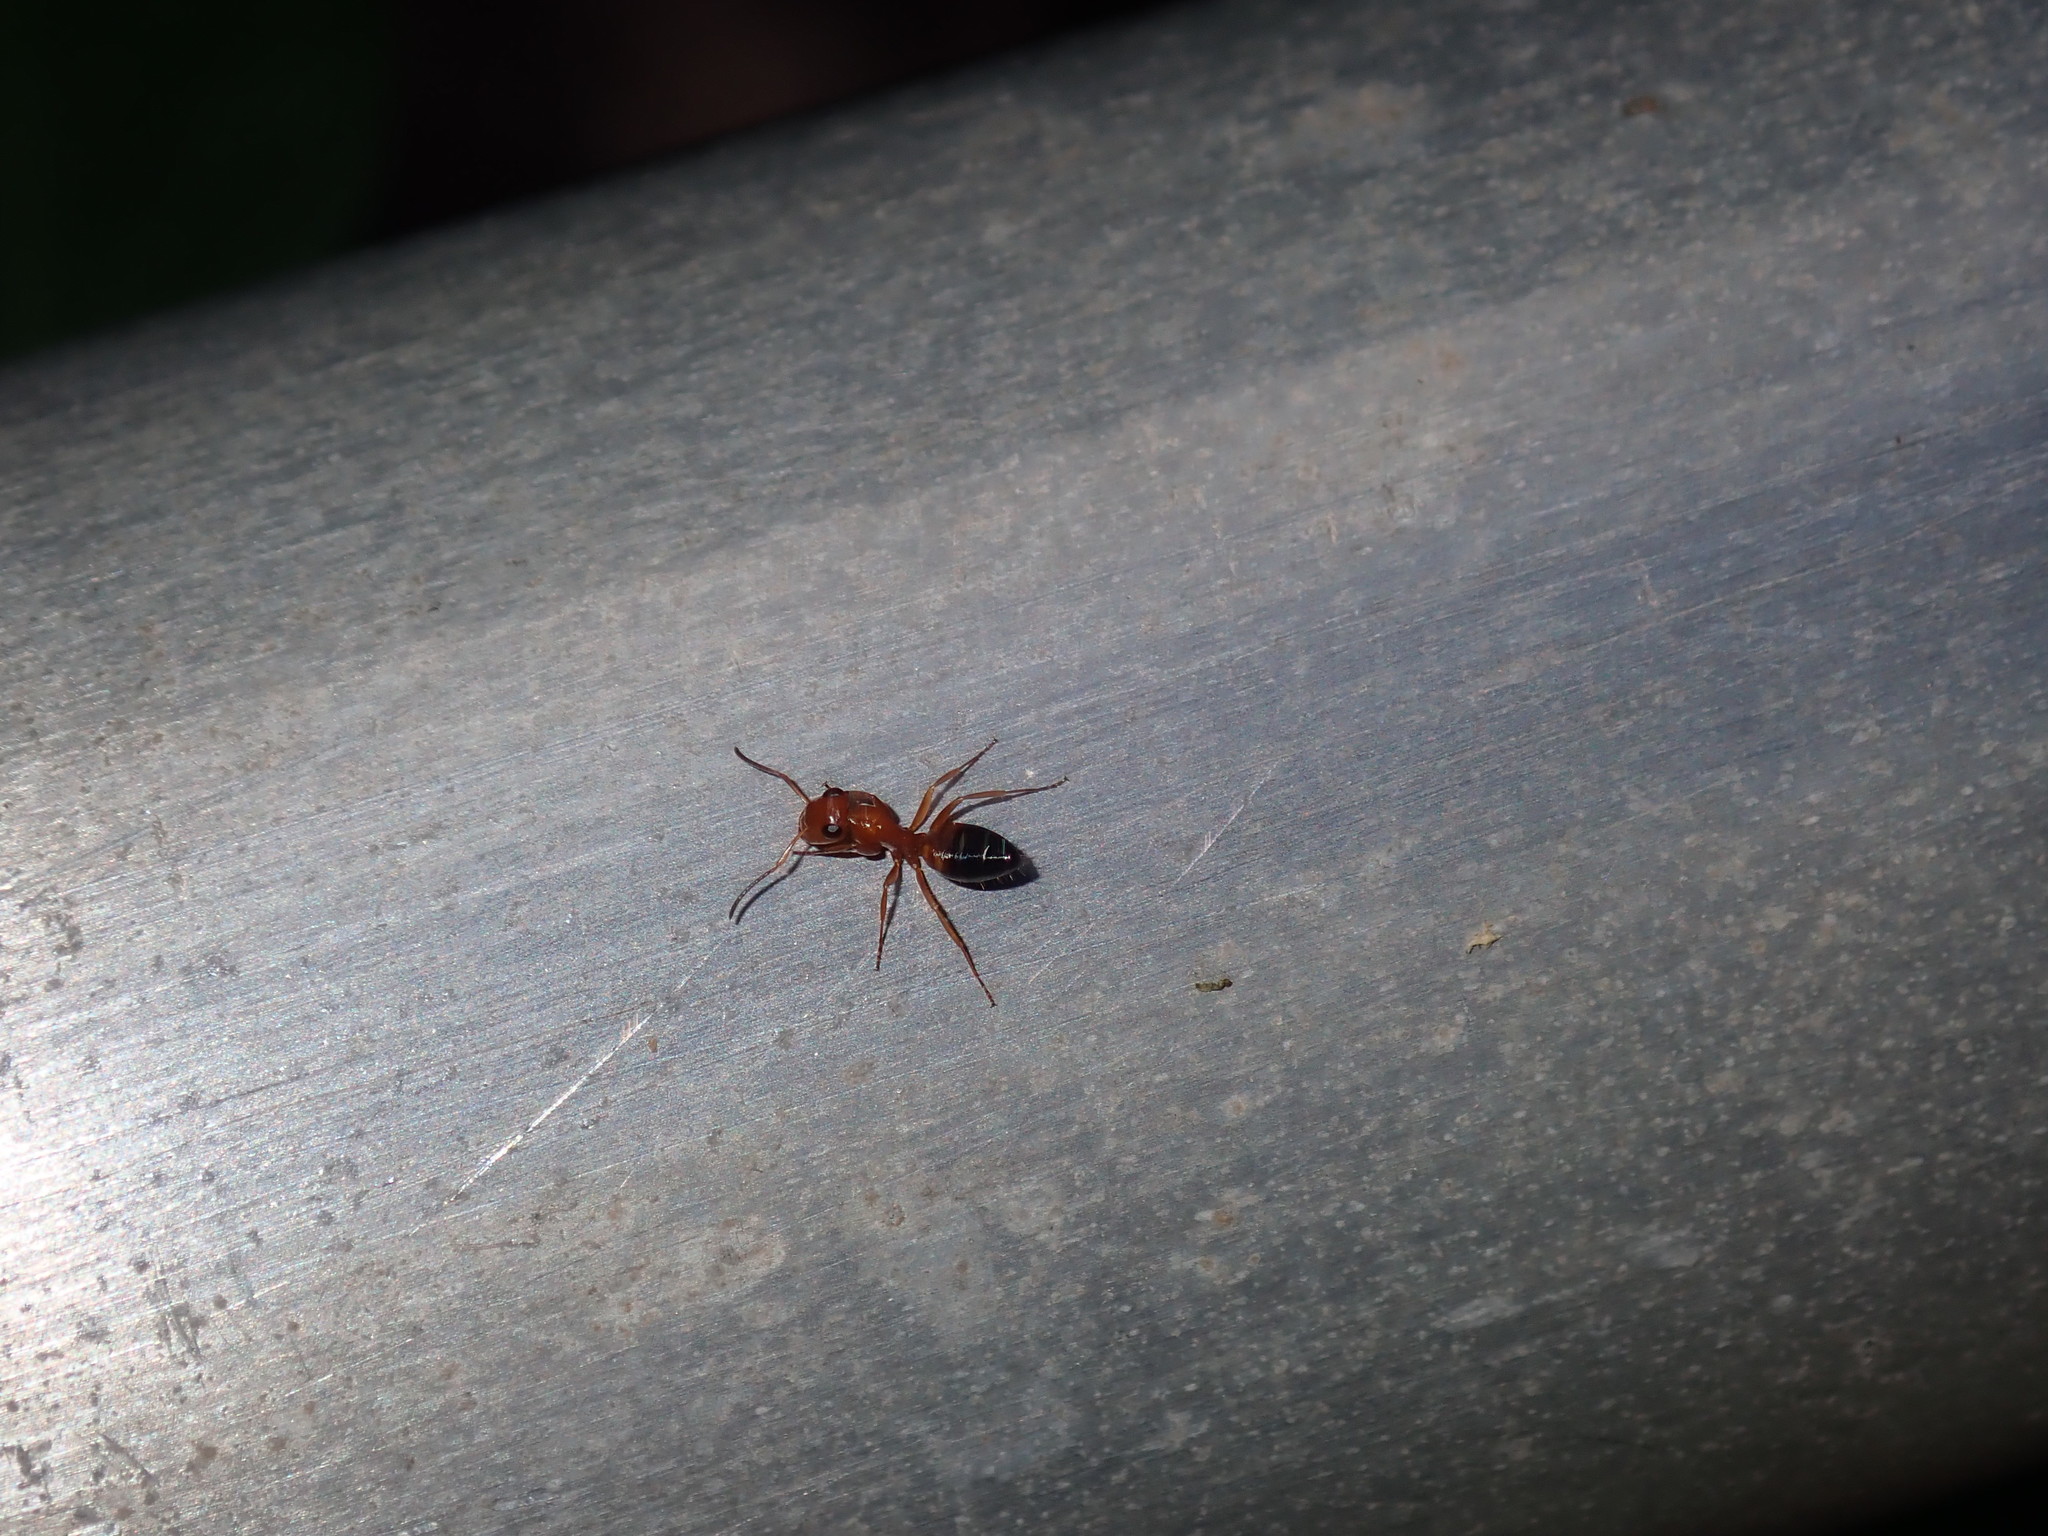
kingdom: Animalia
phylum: Arthropoda
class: Insecta
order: Hymenoptera
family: Formicidae
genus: Opisthopsis
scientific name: Opisthopsis haddoni
